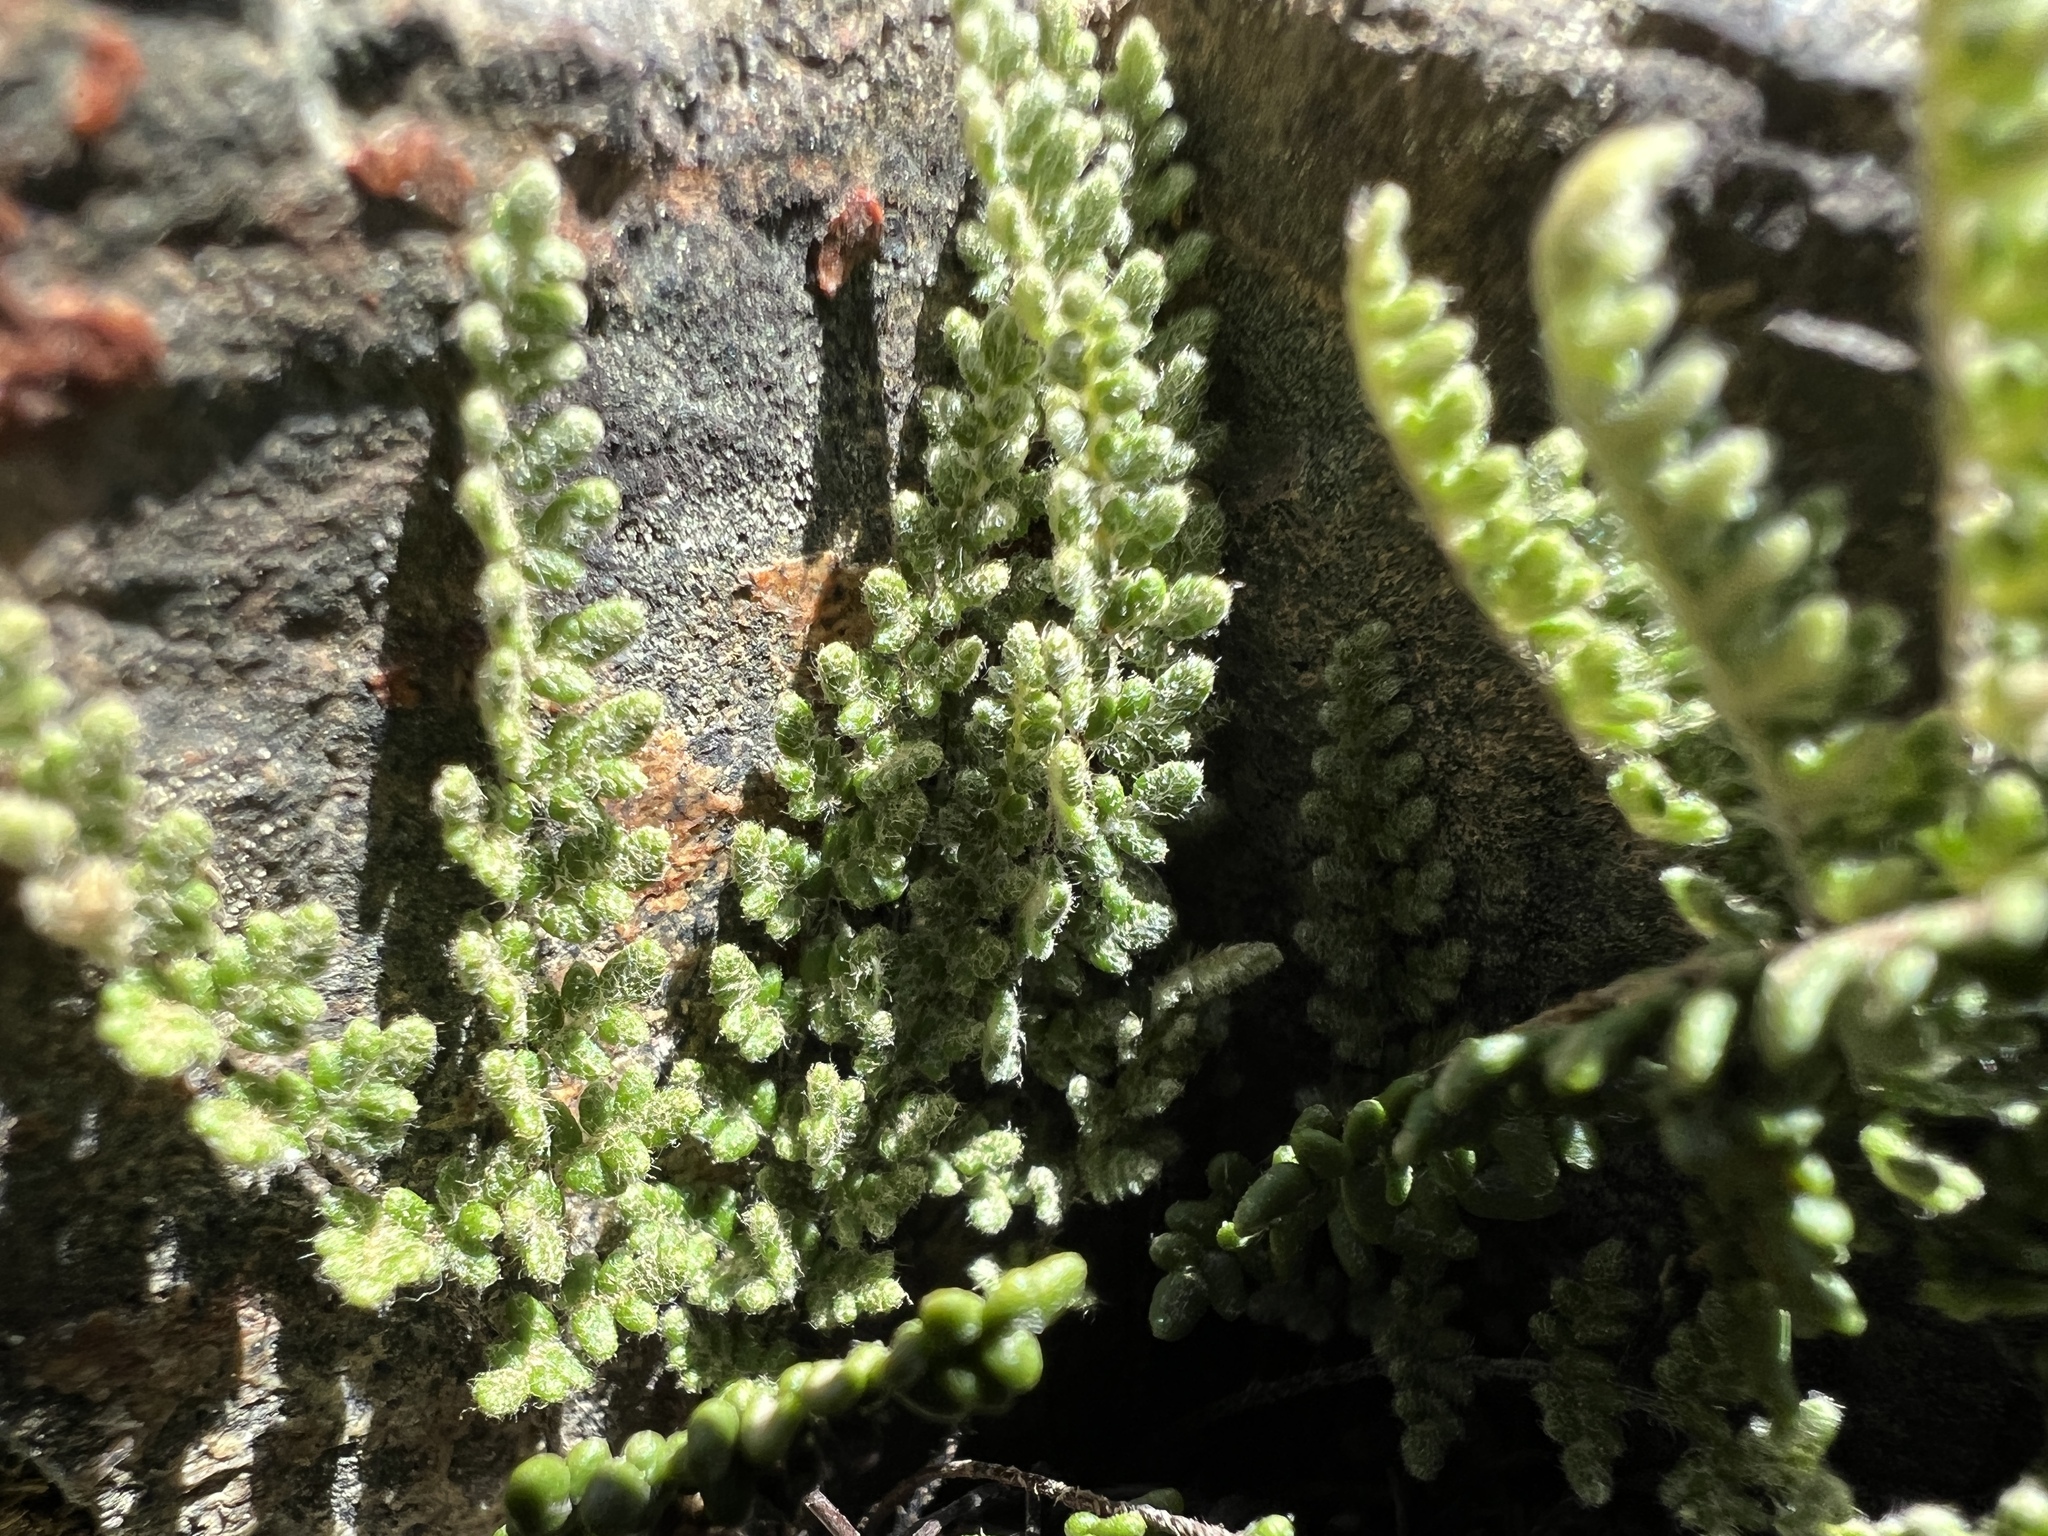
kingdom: Plantae
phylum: Tracheophyta
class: Polypodiopsida
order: Polypodiales
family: Pteridaceae
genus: Myriopteris
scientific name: Myriopteris gracillima
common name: Lace fern
